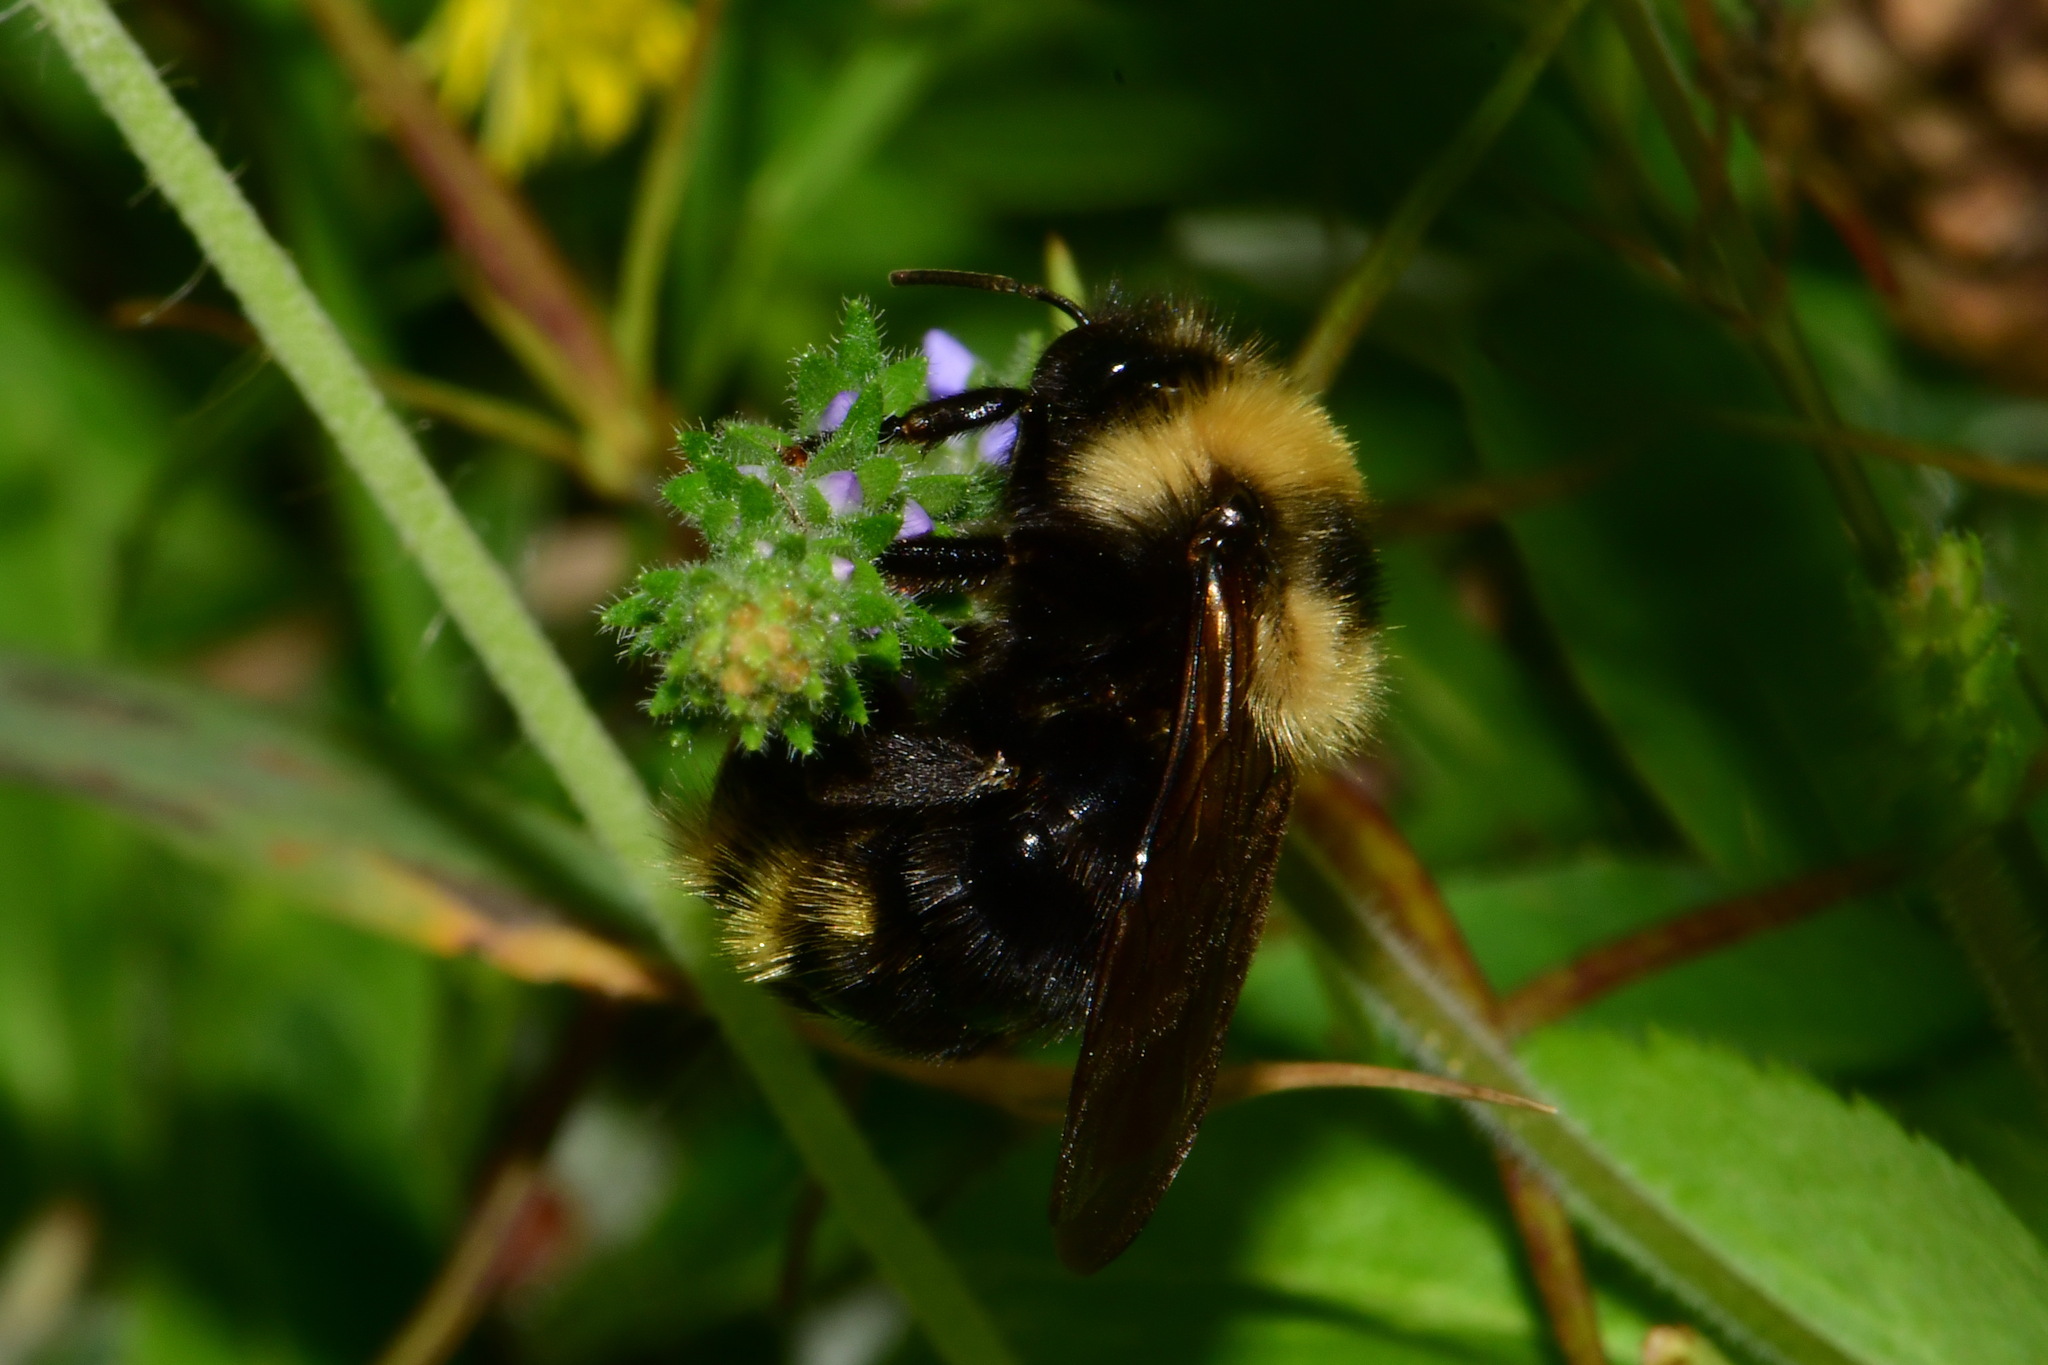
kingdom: Animalia
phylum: Arthropoda
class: Insecta
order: Hymenoptera
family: Apidae
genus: Bombus
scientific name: Bombus campestris
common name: Field cuckoo-bee
